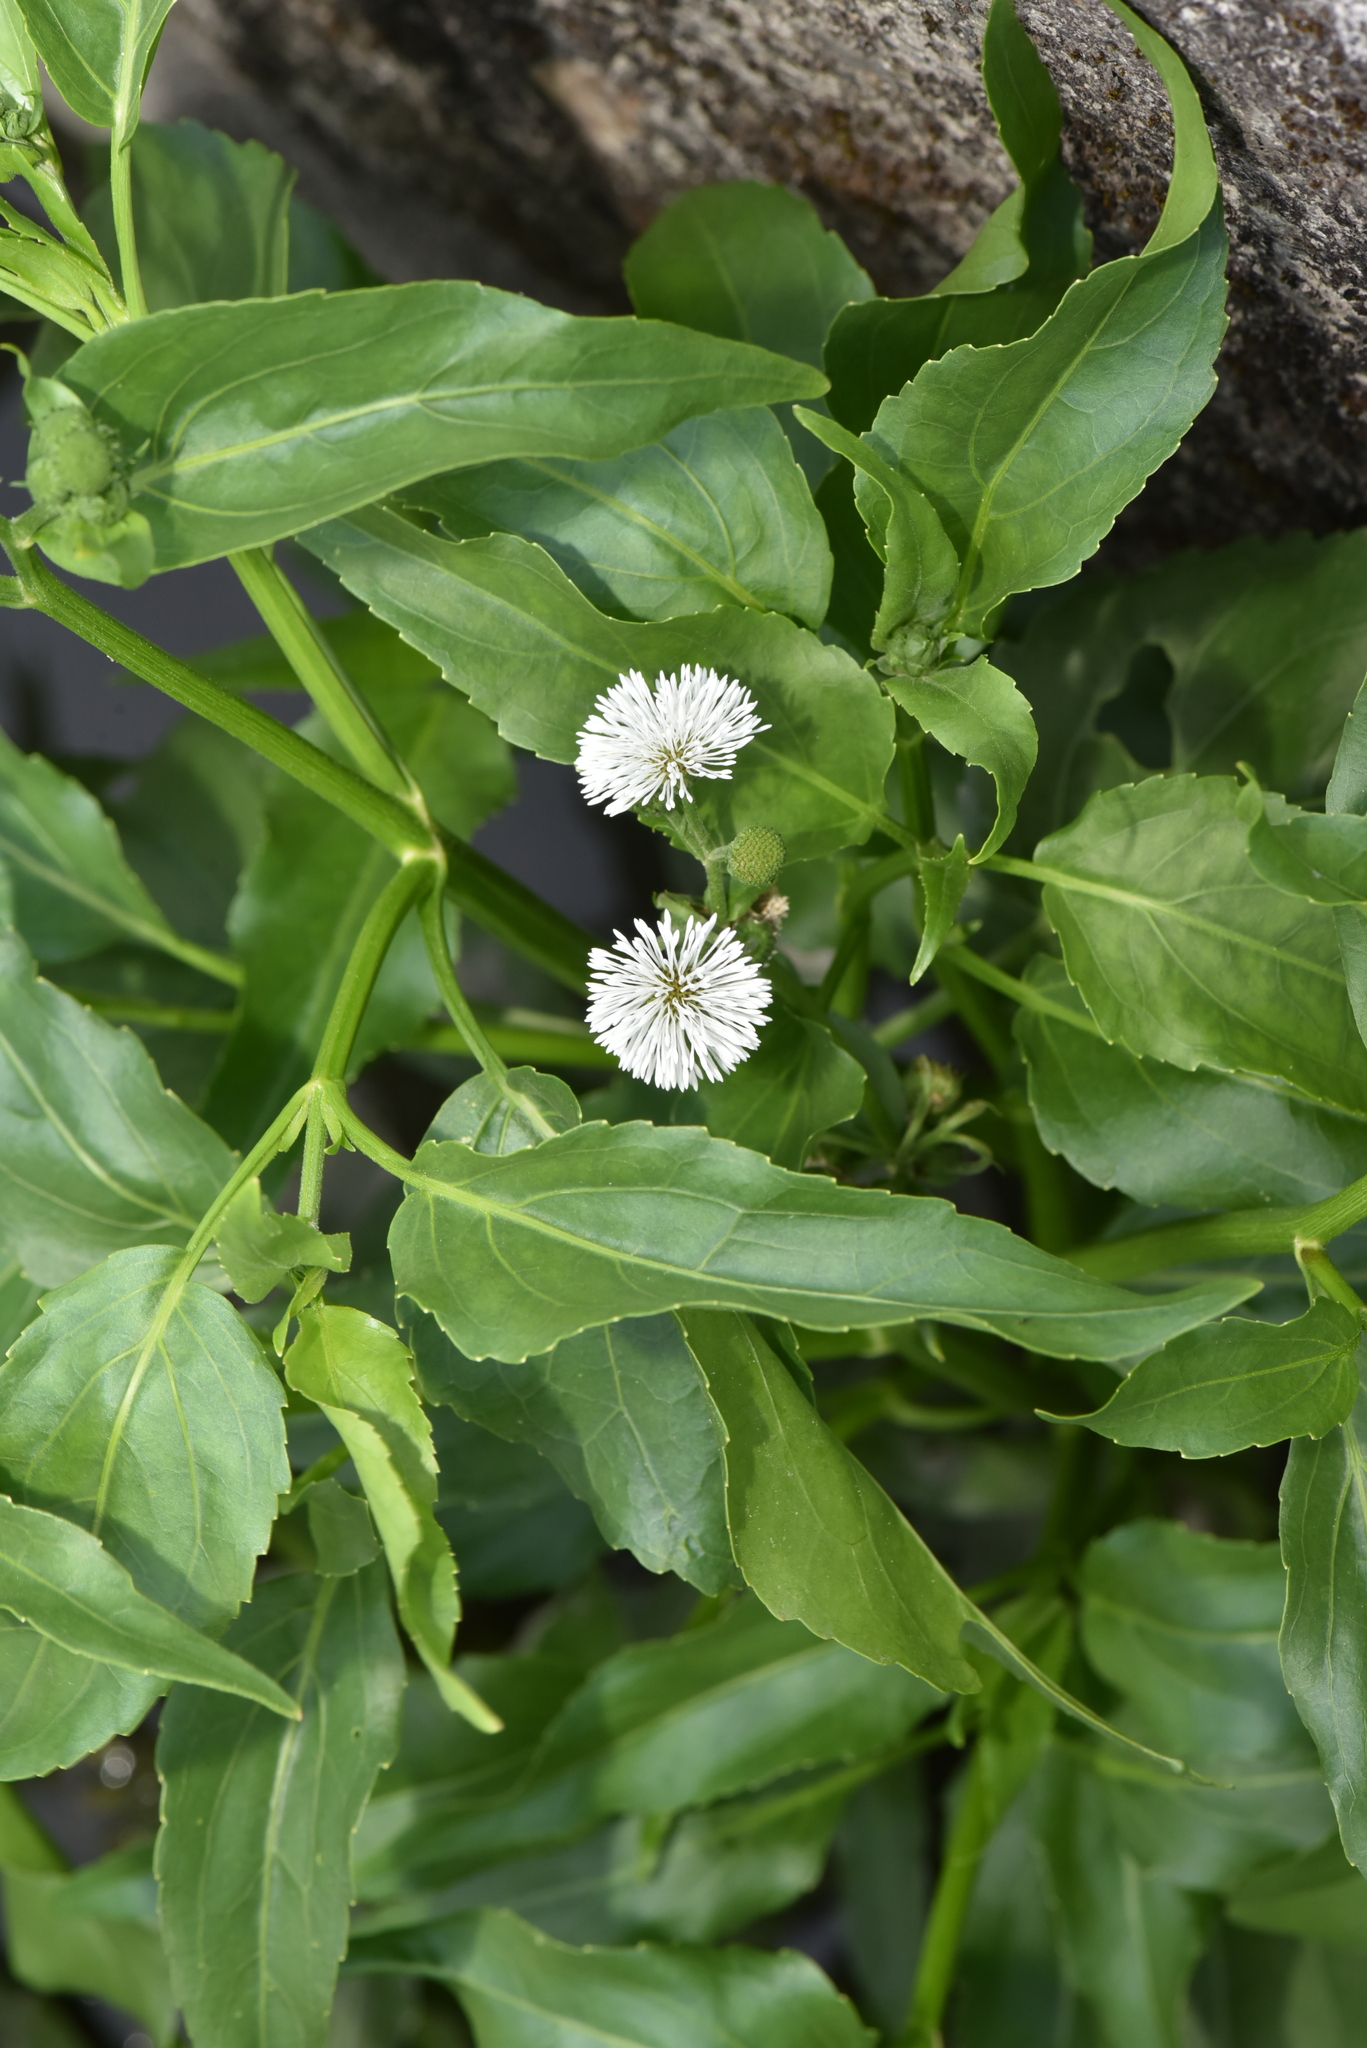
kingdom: Plantae
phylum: Tracheophyta
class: Magnoliopsida
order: Asterales
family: Asteraceae
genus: Gymnocoronis
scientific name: Gymnocoronis spilanthoides
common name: Senegal teaplant
